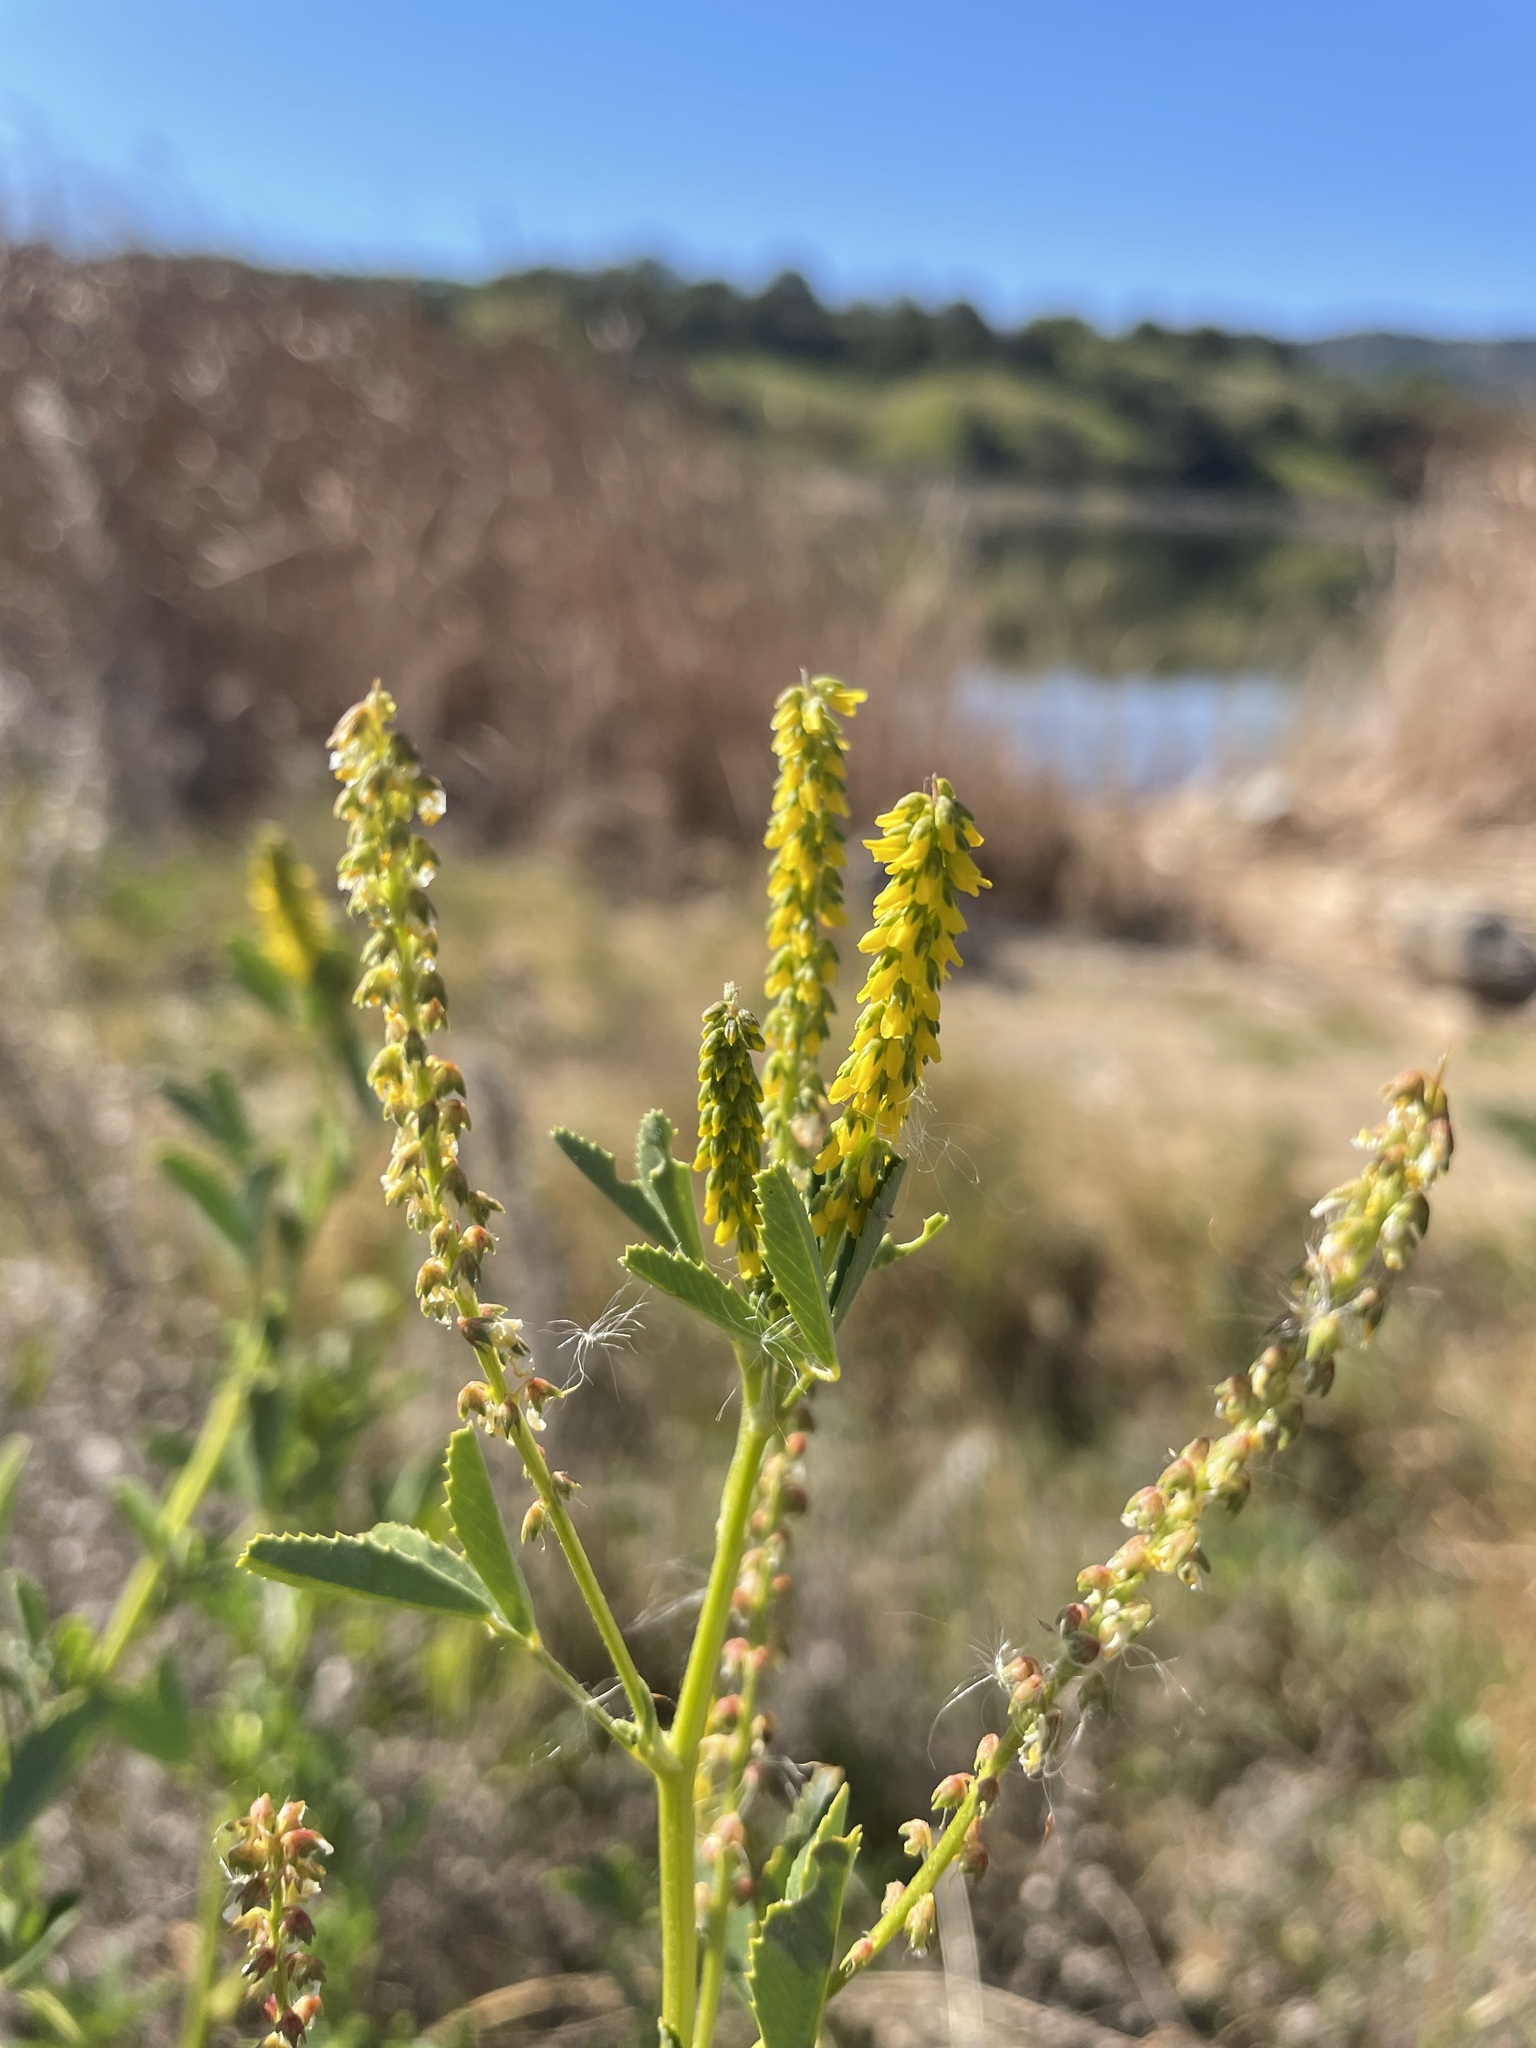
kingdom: Plantae
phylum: Tracheophyta
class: Magnoliopsida
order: Fabales
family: Fabaceae
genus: Melilotus
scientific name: Melilotus indicus
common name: Small melilot
